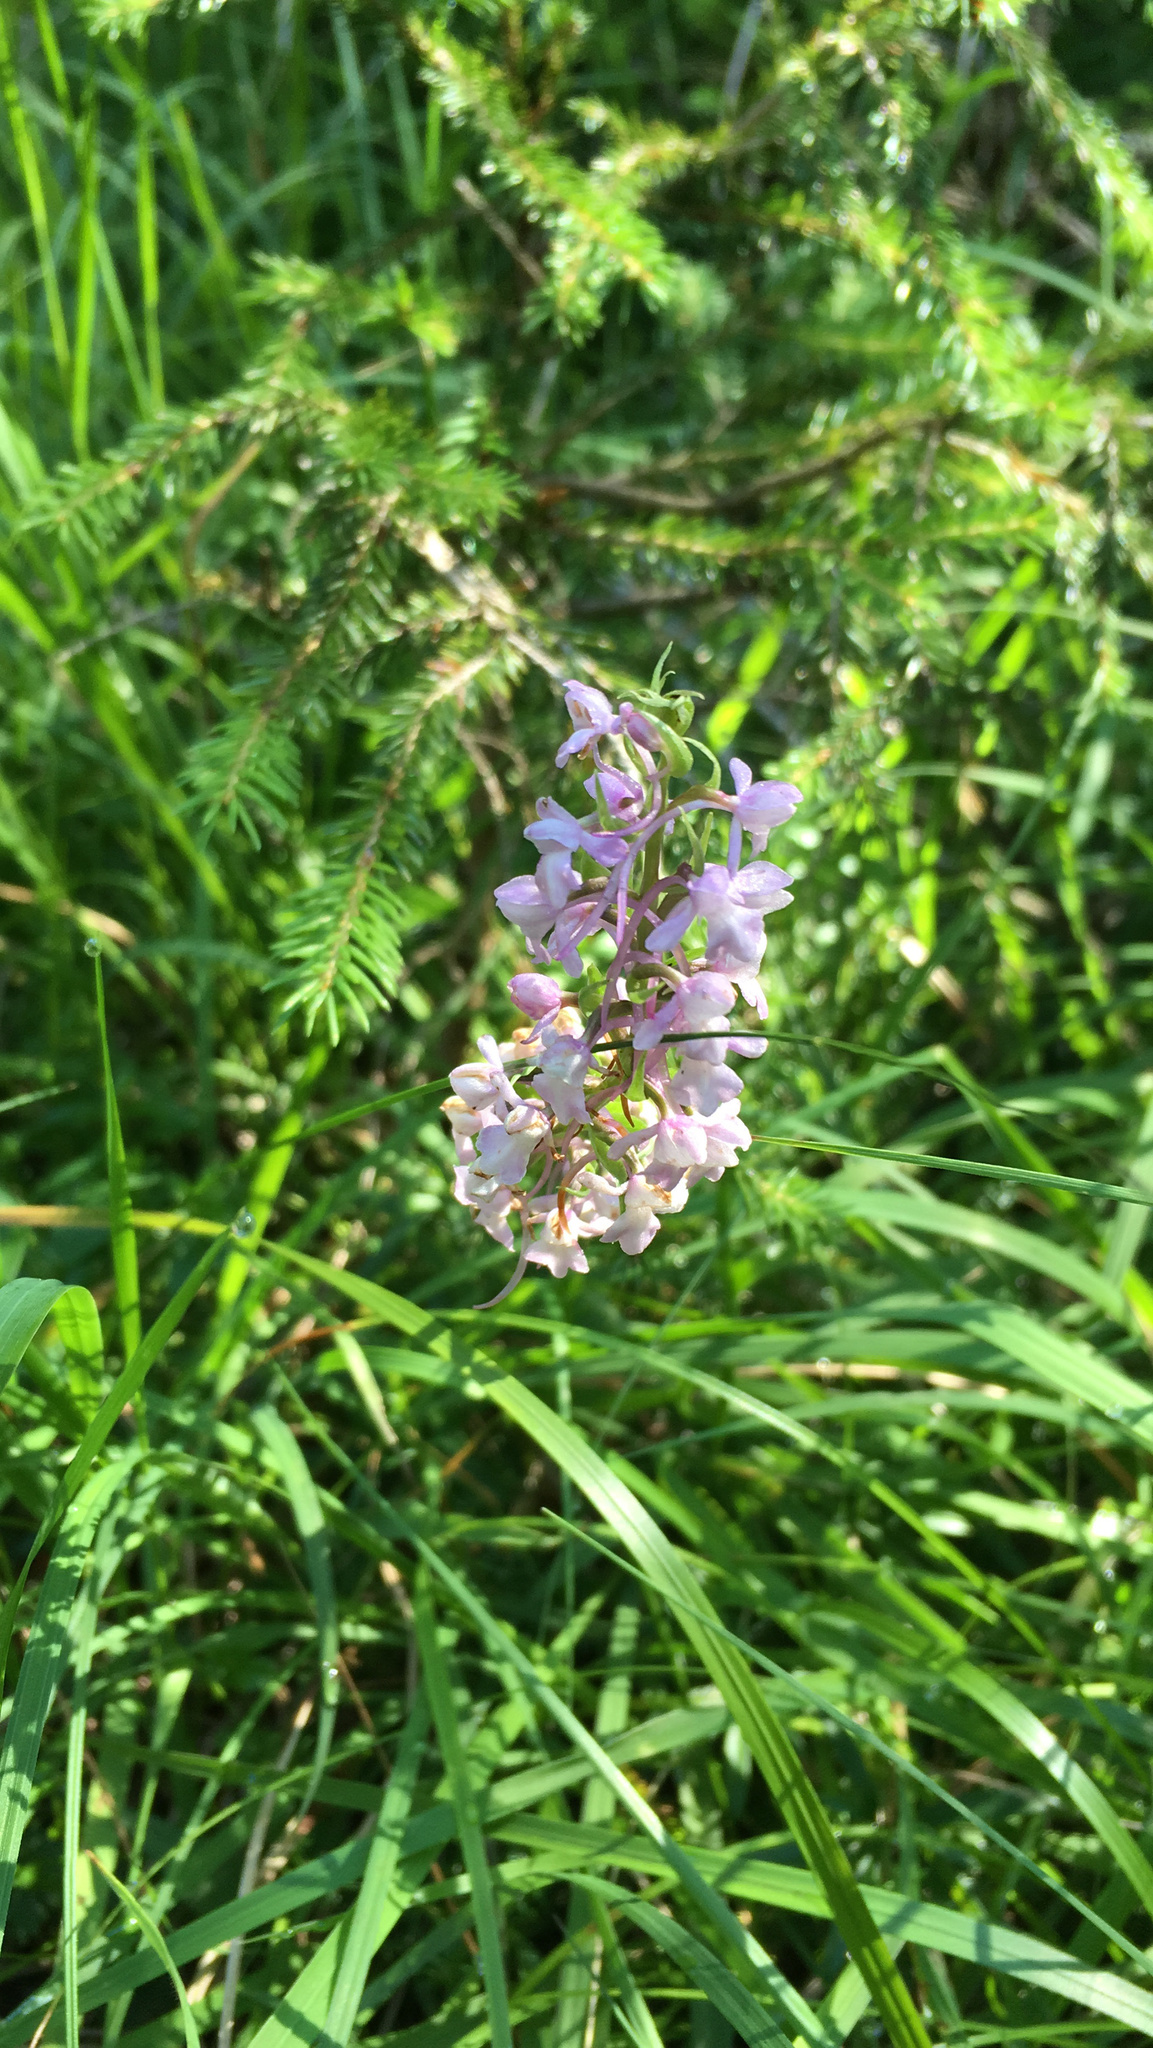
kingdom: Plantae
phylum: Tracheophyta
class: Liliopsida
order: Asparagales
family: Orchidaceae
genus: Gymnadenia
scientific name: Gymnadenia conopsea
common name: Fragrant orchid
